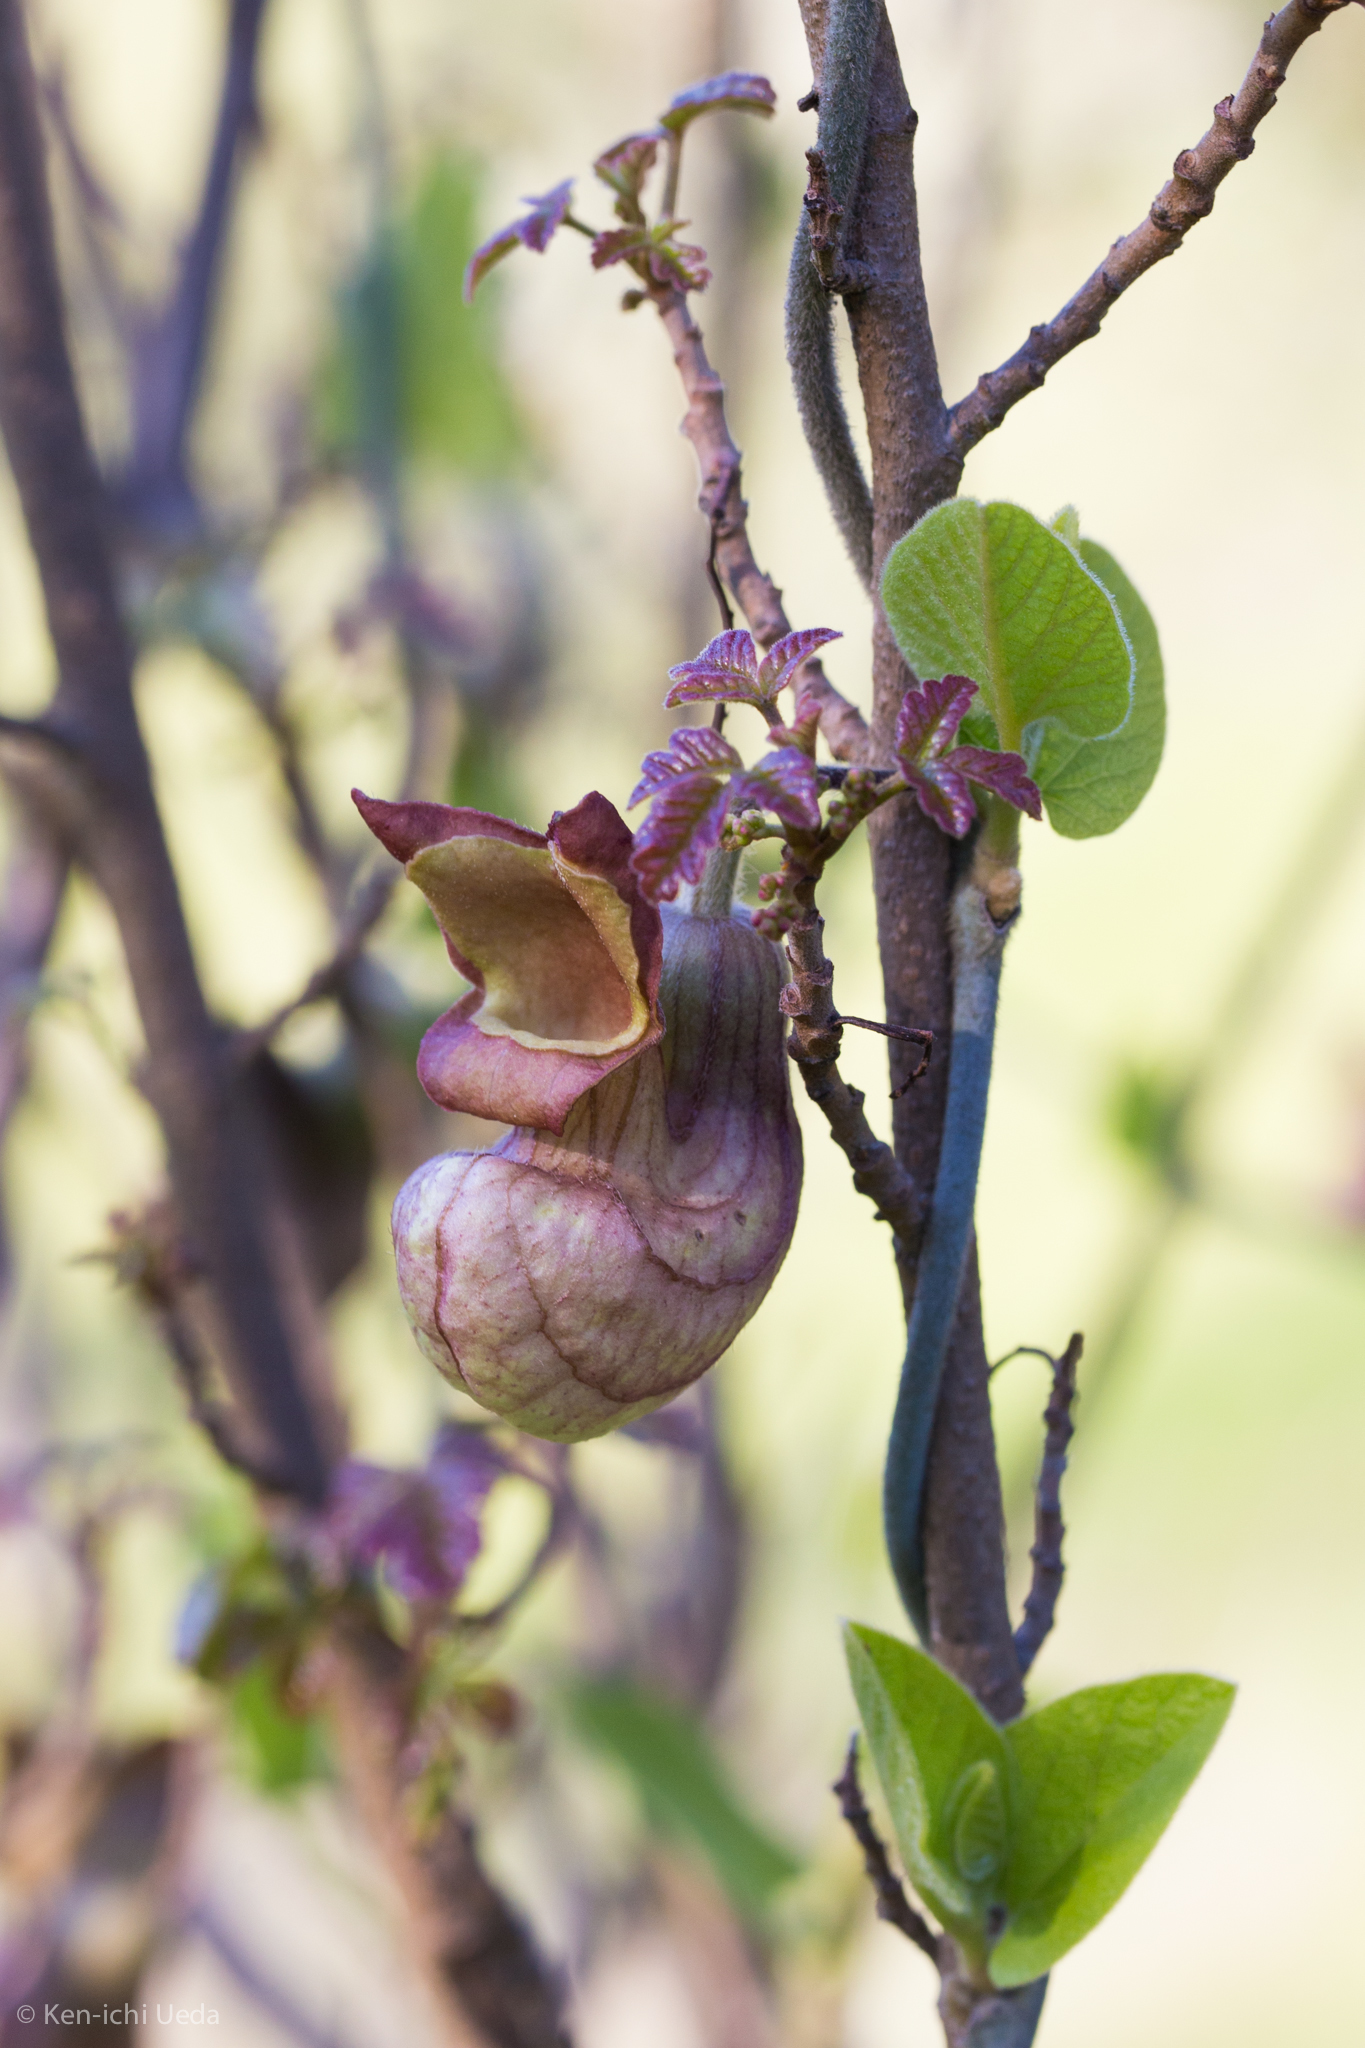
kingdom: Plantae
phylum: Tracheophyta
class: Magnoliopsida
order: Piperales
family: Aristolochiaceae
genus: Isotrema
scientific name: Isotrema californicum
